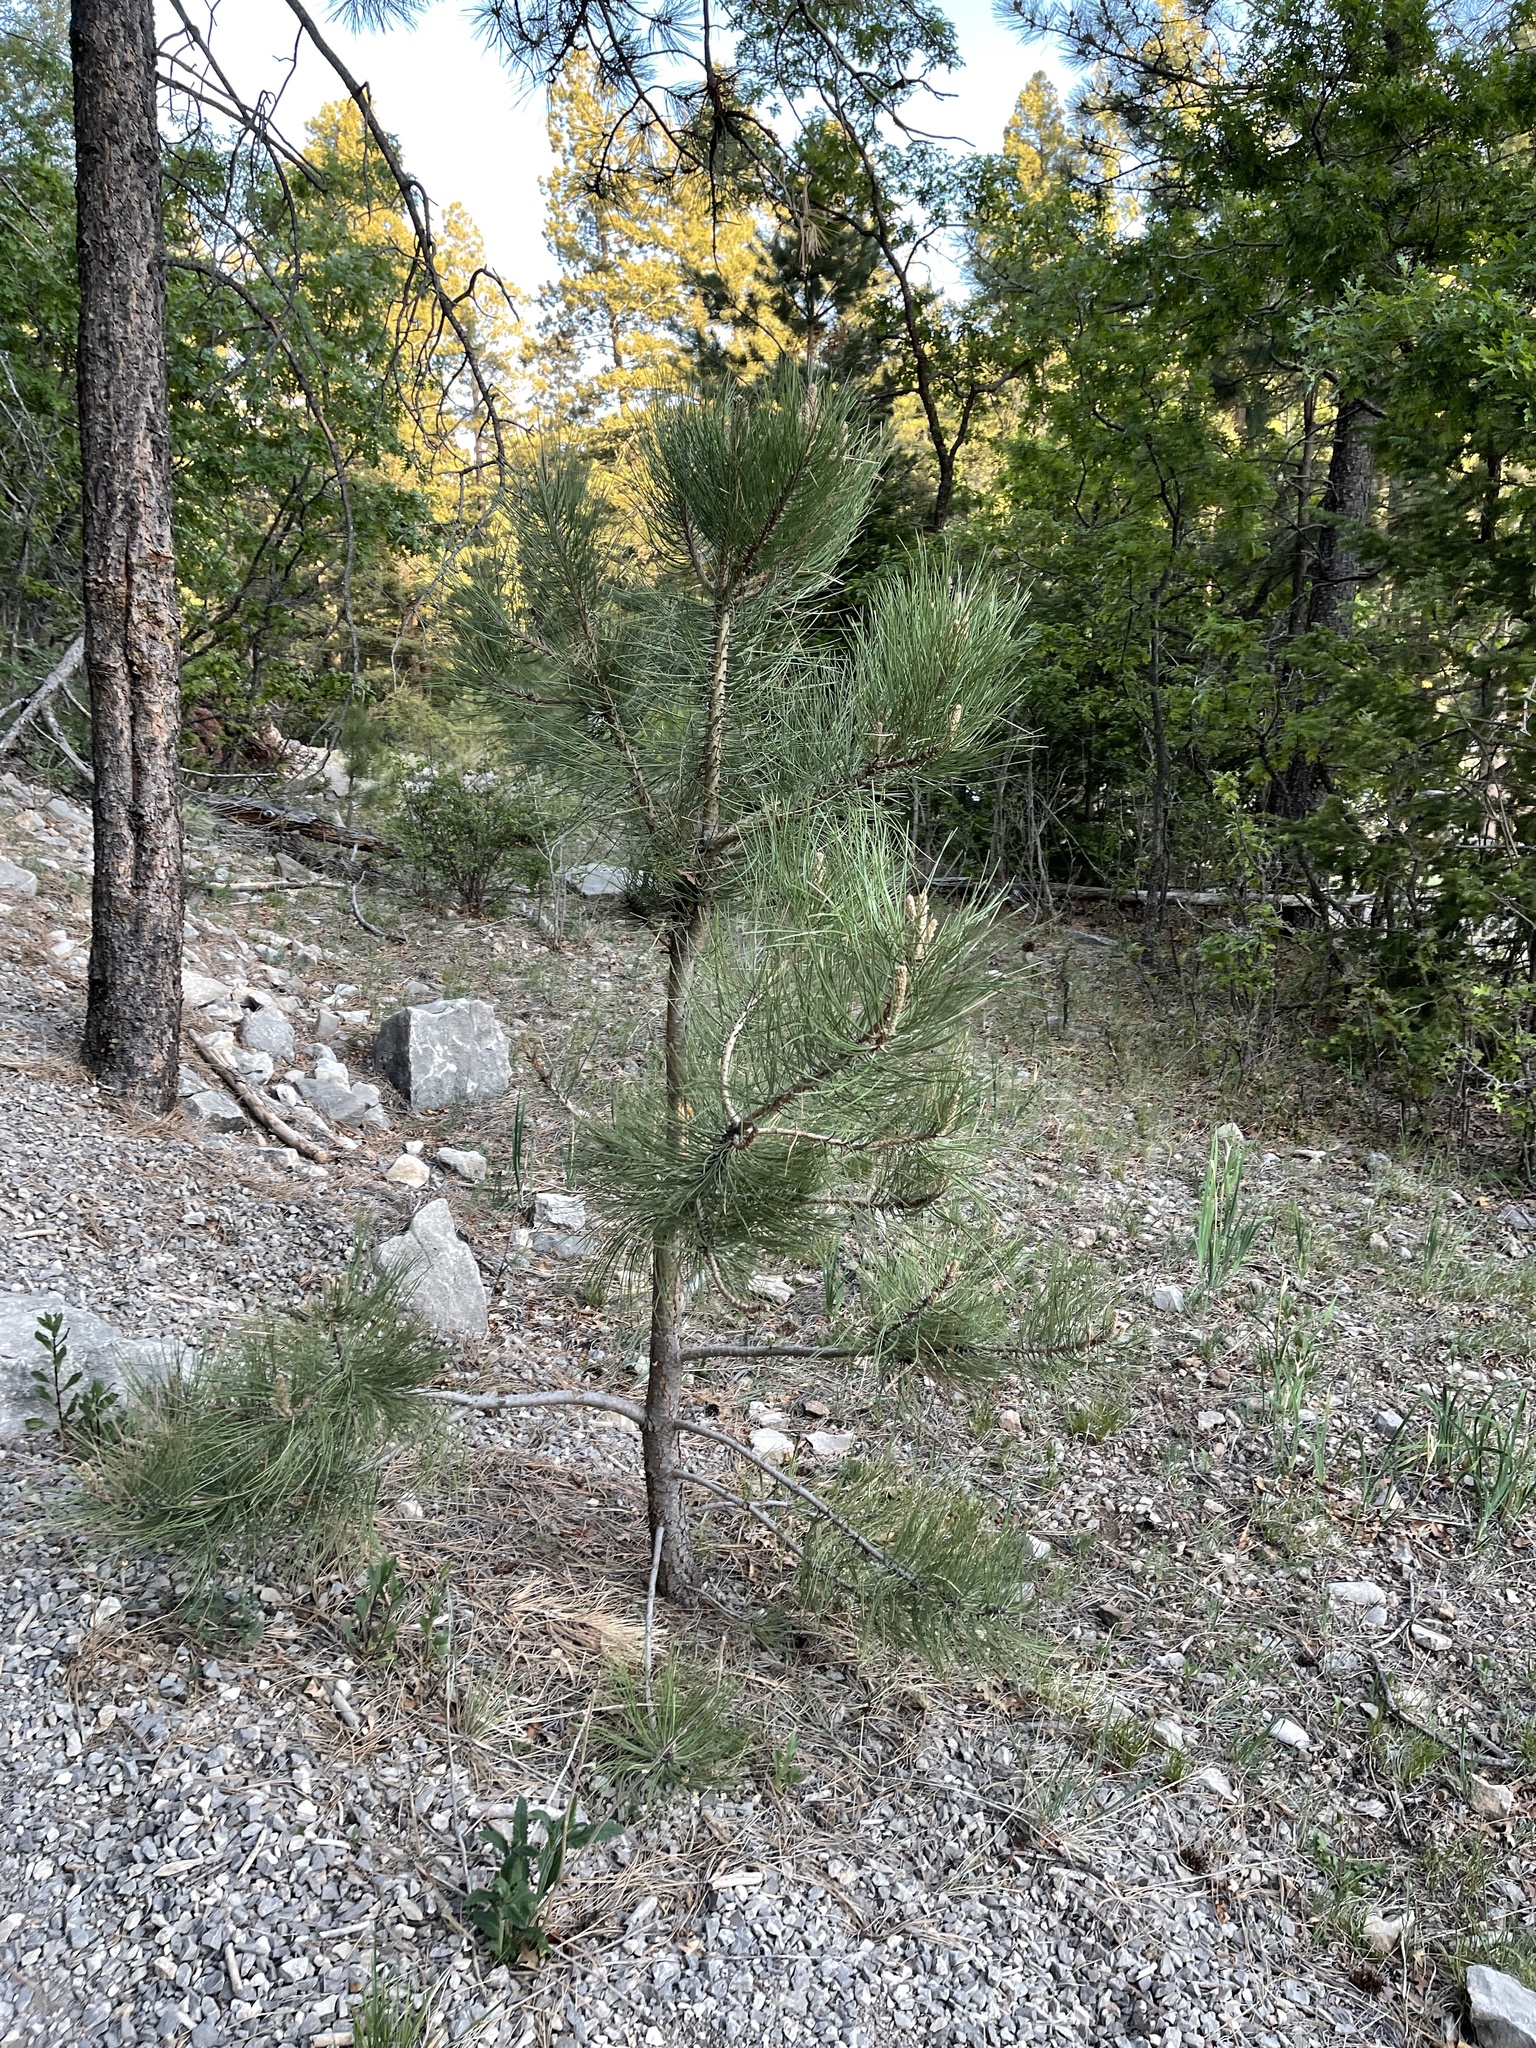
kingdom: Plantae
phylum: Tracheophyta
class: Pinopsida
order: Pinales
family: Pinaceae
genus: Pinus
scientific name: Pinus ponderosa
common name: Western yellow-pine
